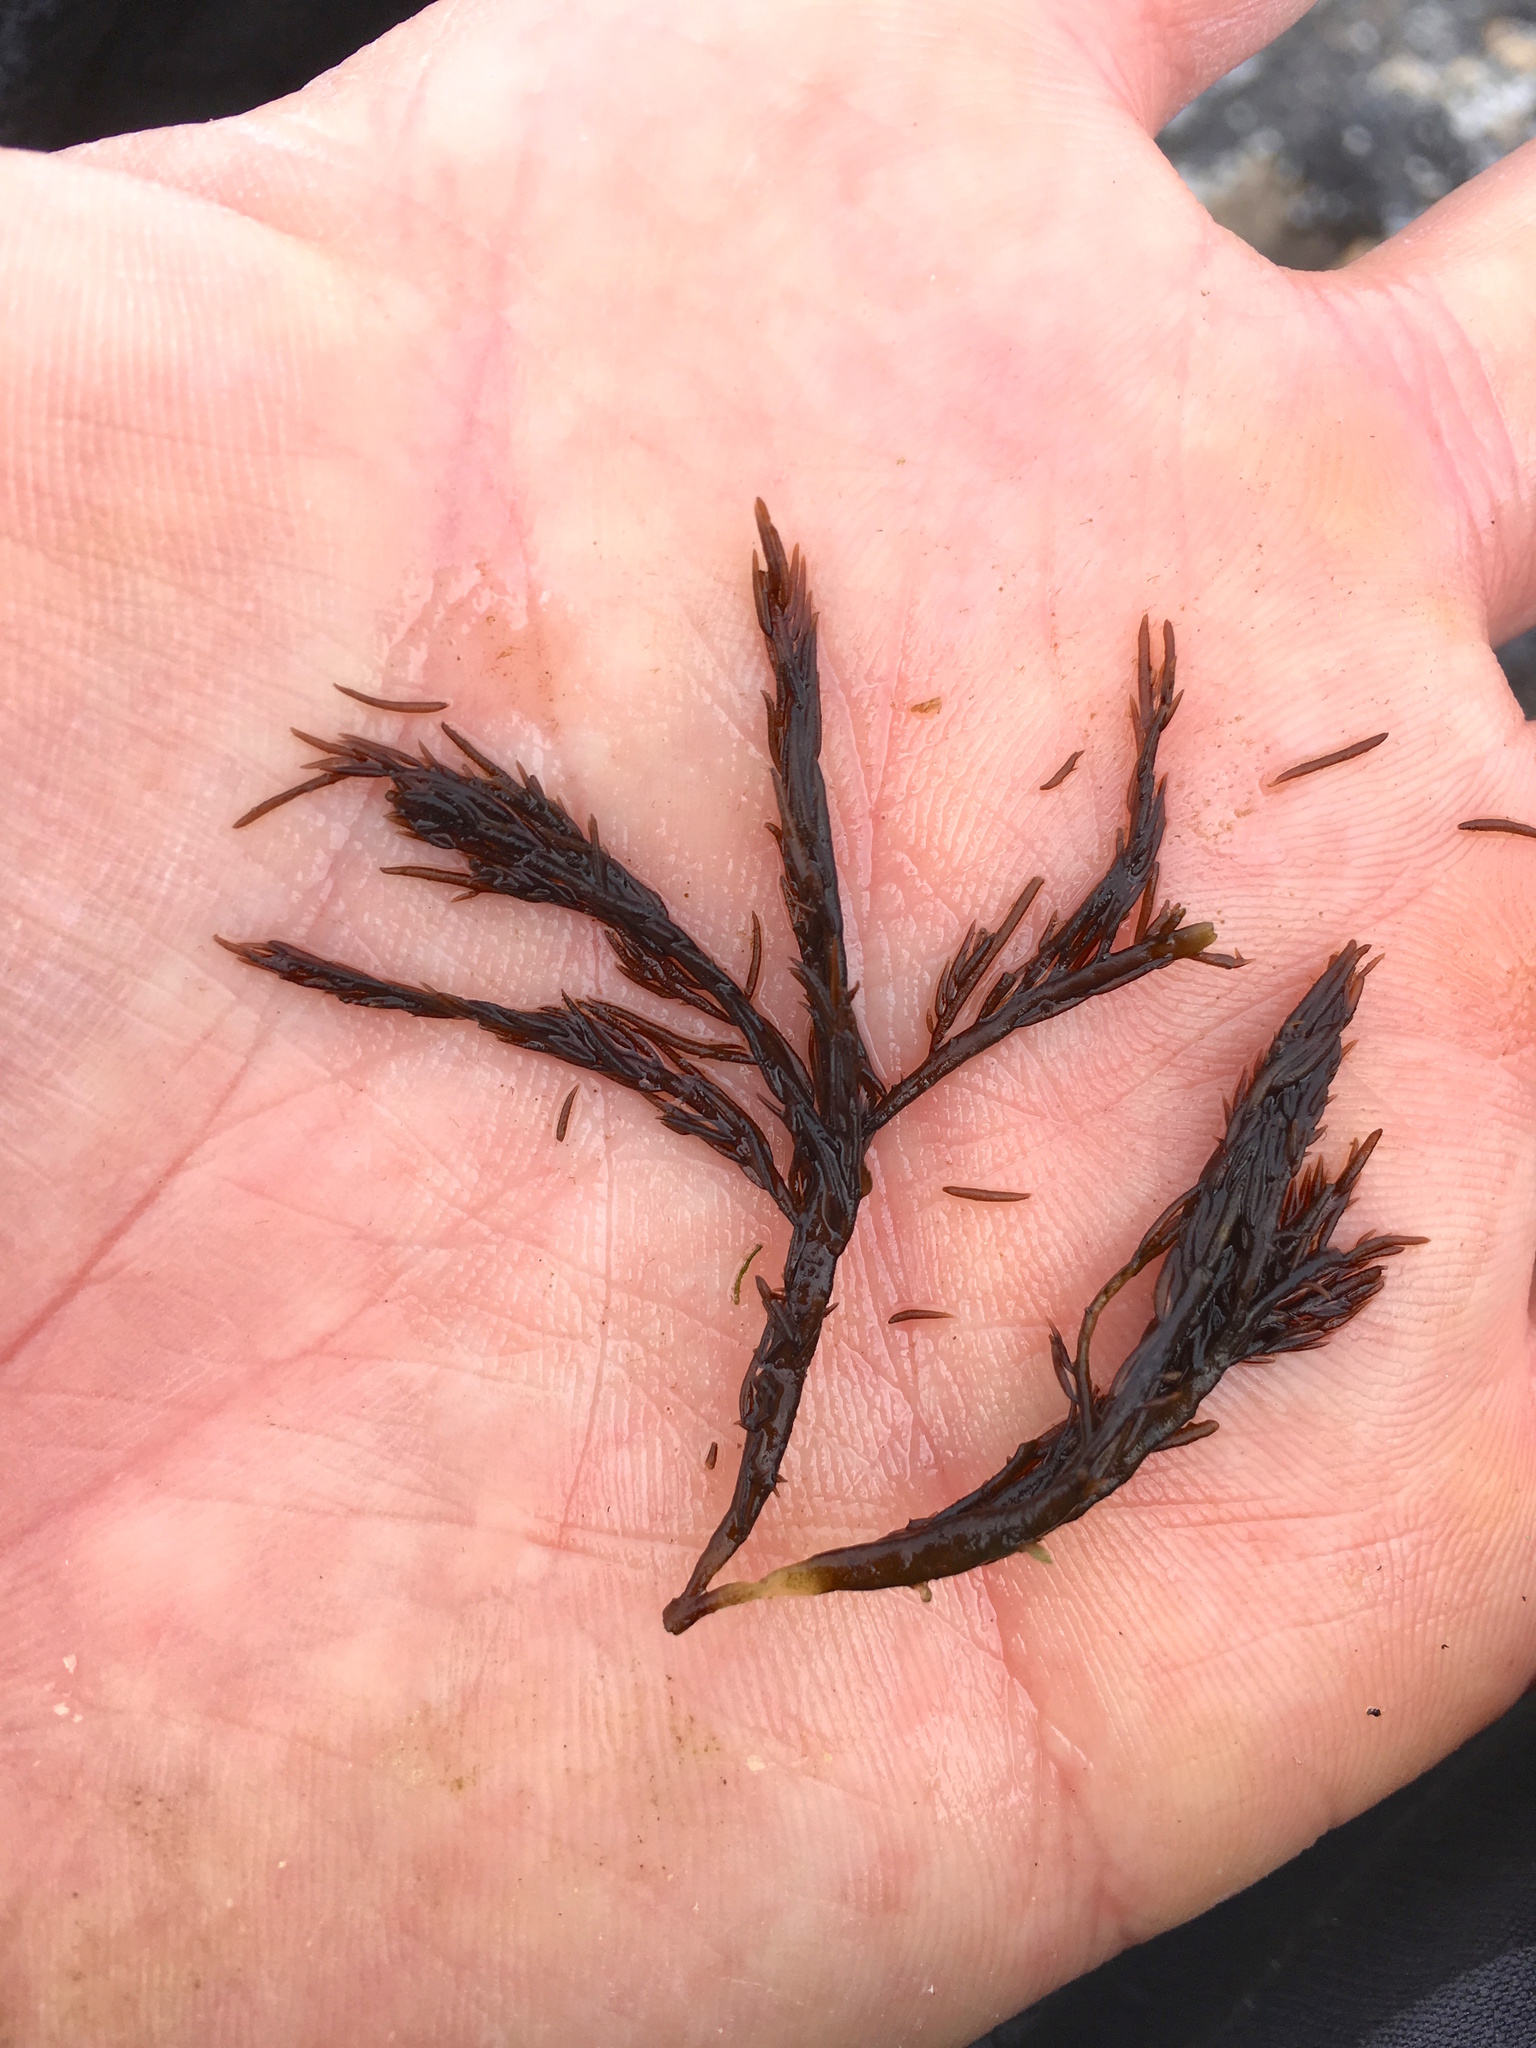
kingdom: Plantae
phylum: Rhodophyta
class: Florideophyceae
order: Gigartinales
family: Dumontiaceae
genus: Cryptosiphonia
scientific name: Cryptosiphonia woodii
